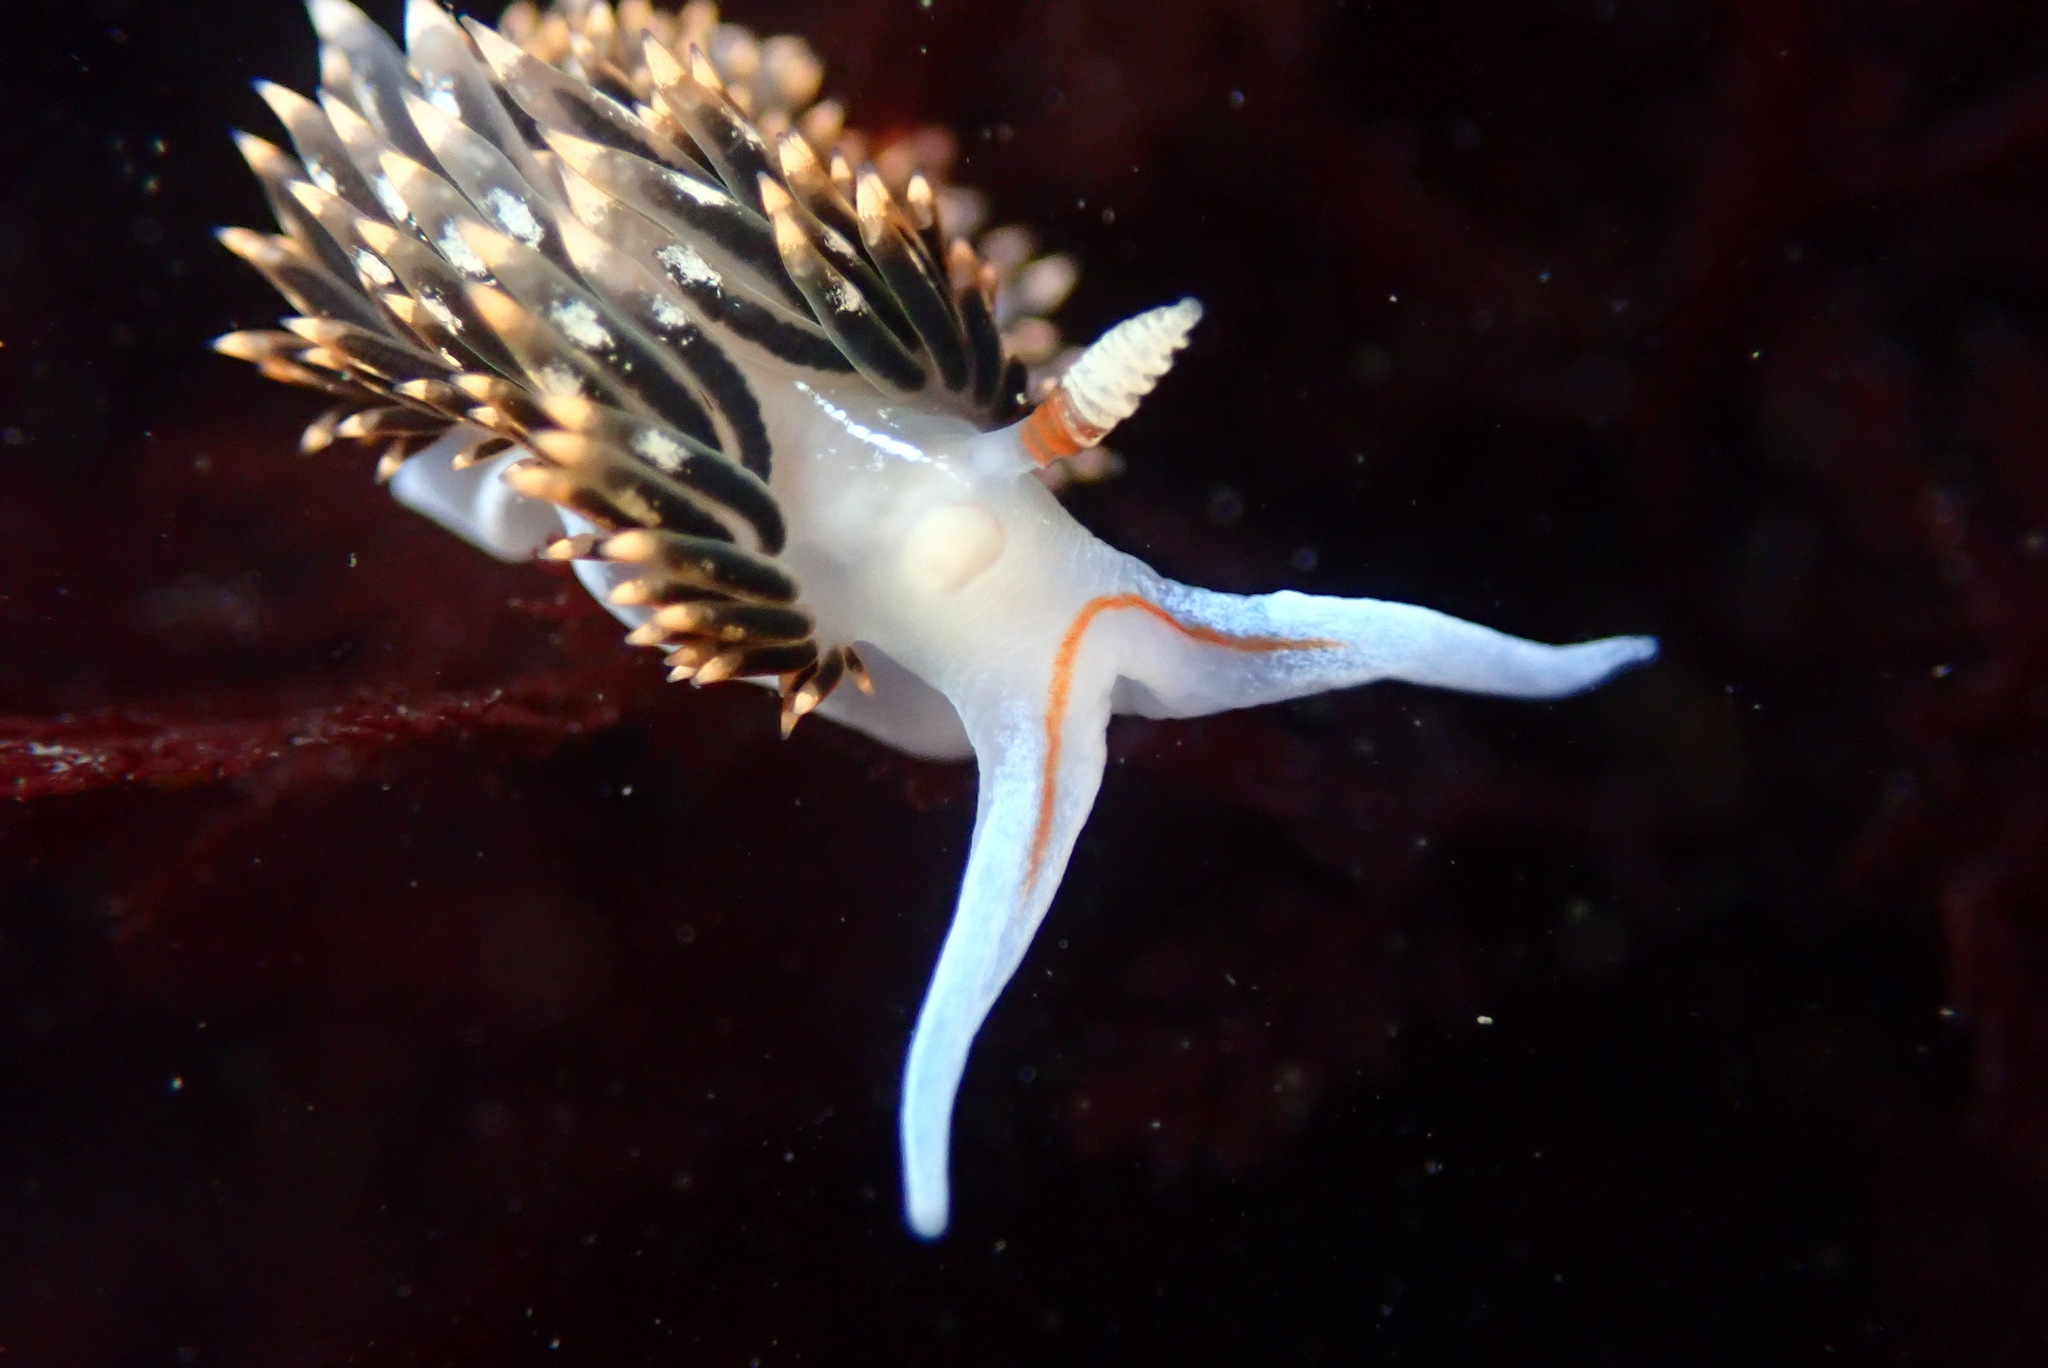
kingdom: Animalia
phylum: Mollusca
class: Gastropoda
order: Nudibranchia
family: Facelinidae
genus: Phidiana
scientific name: Phidiana hiltoni
